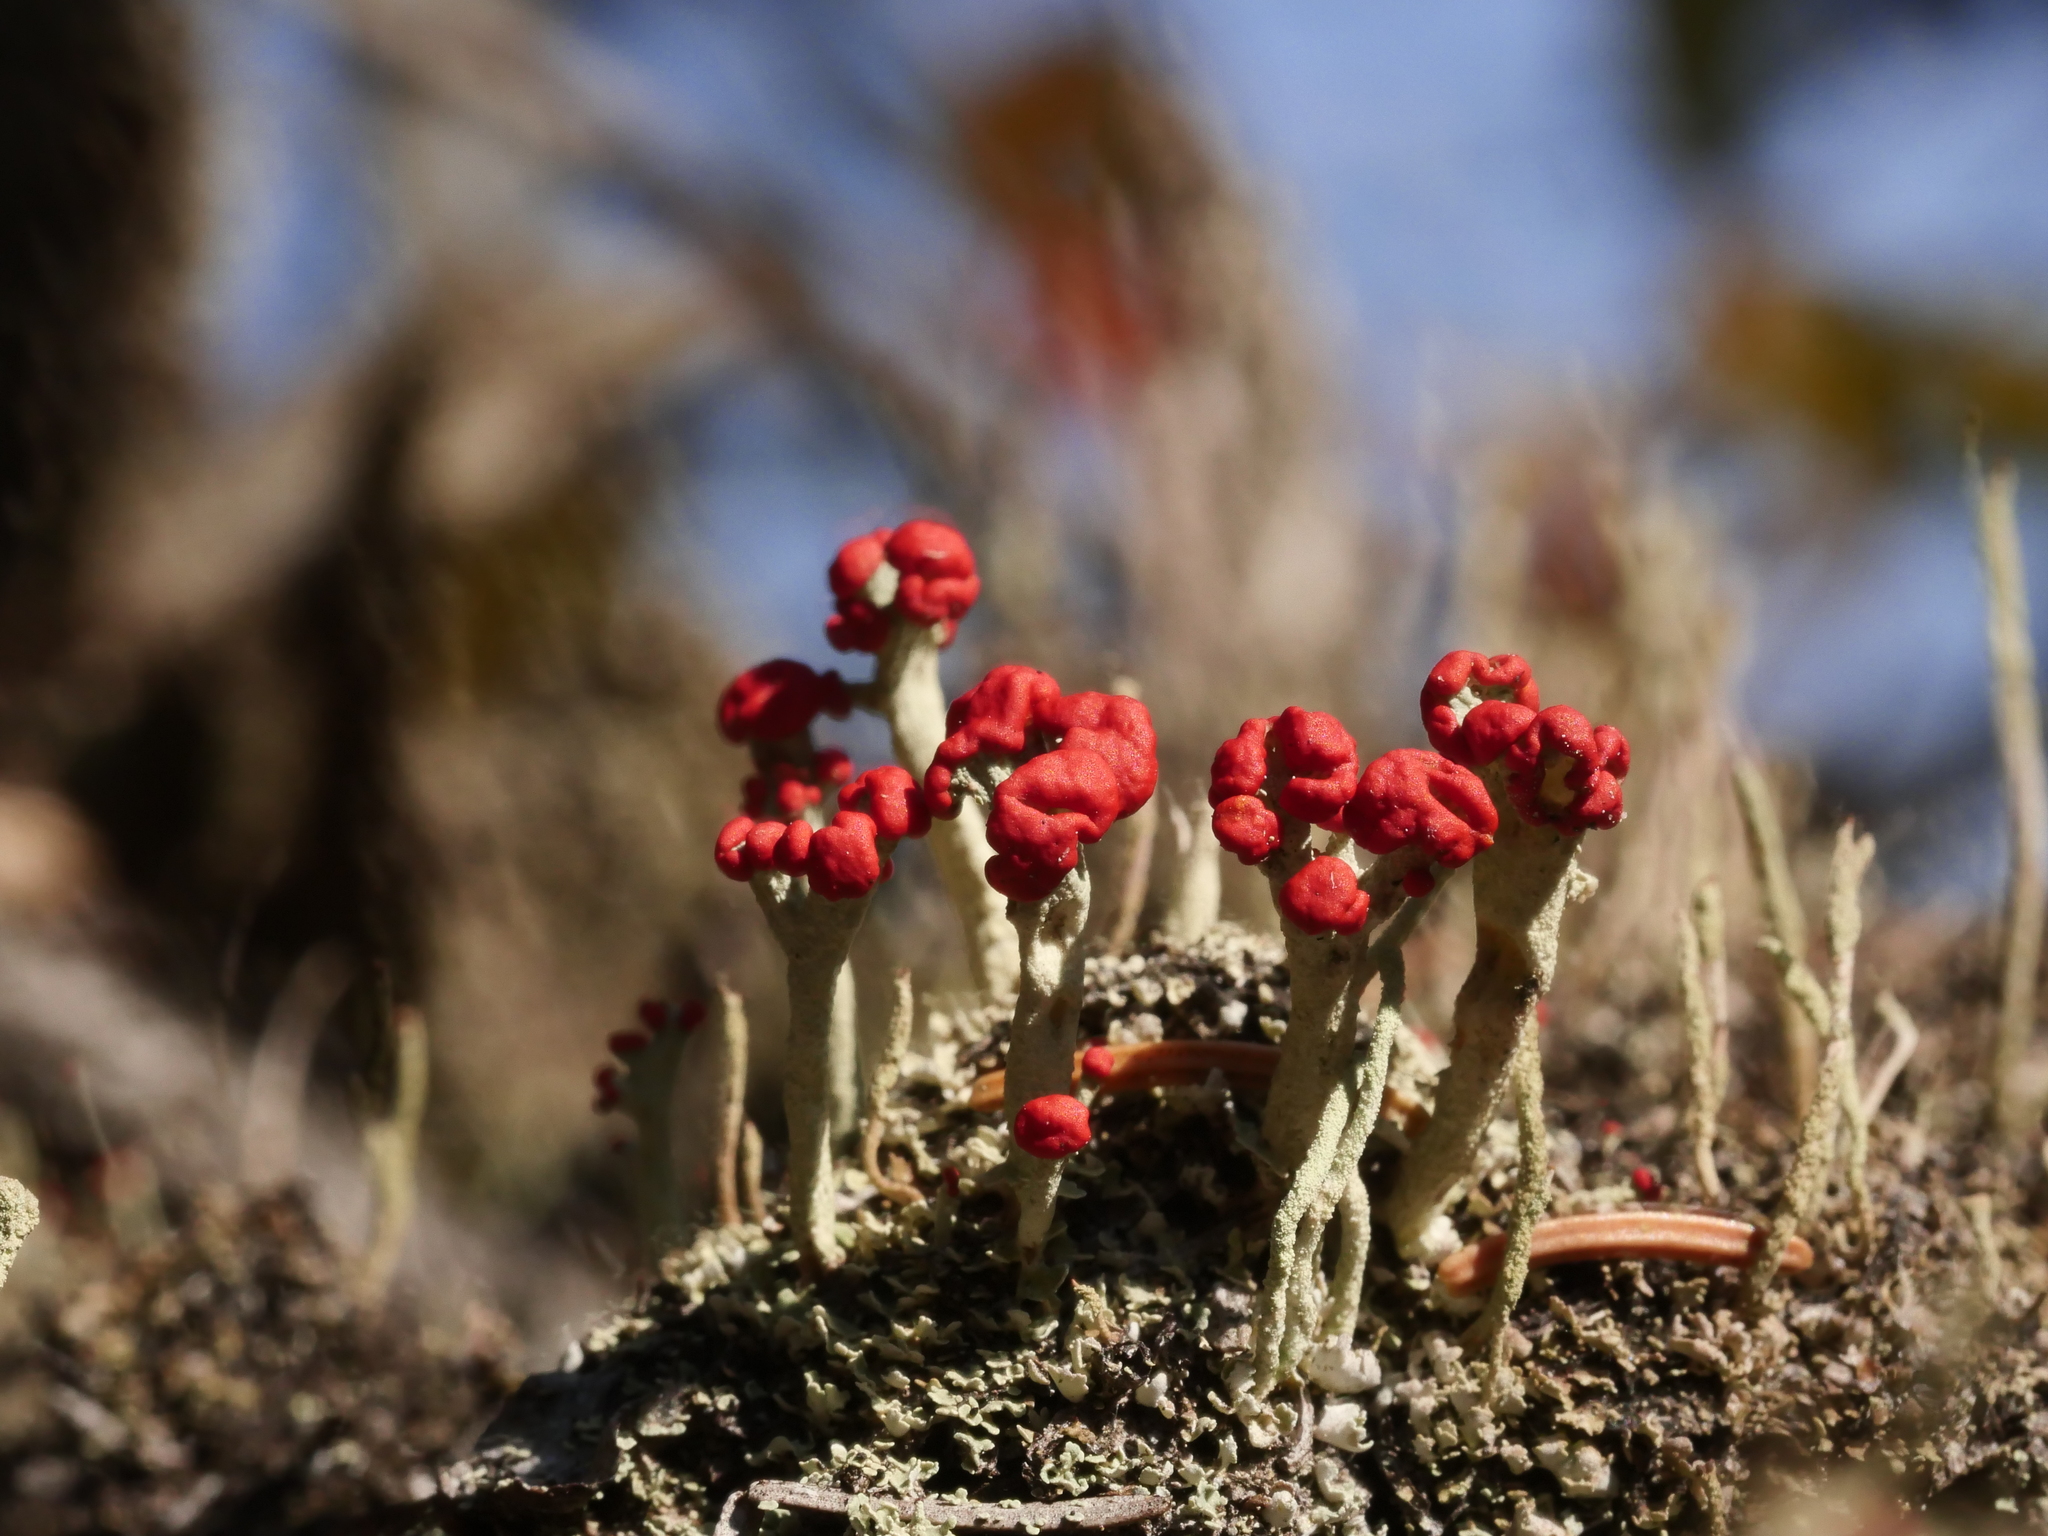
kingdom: Fungi
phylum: Ascomycota
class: Lecanoromycetes
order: Lecanorales
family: Cladoniaceae
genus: Cladonia
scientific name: Cladonia cristatella
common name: British soldier lichen
